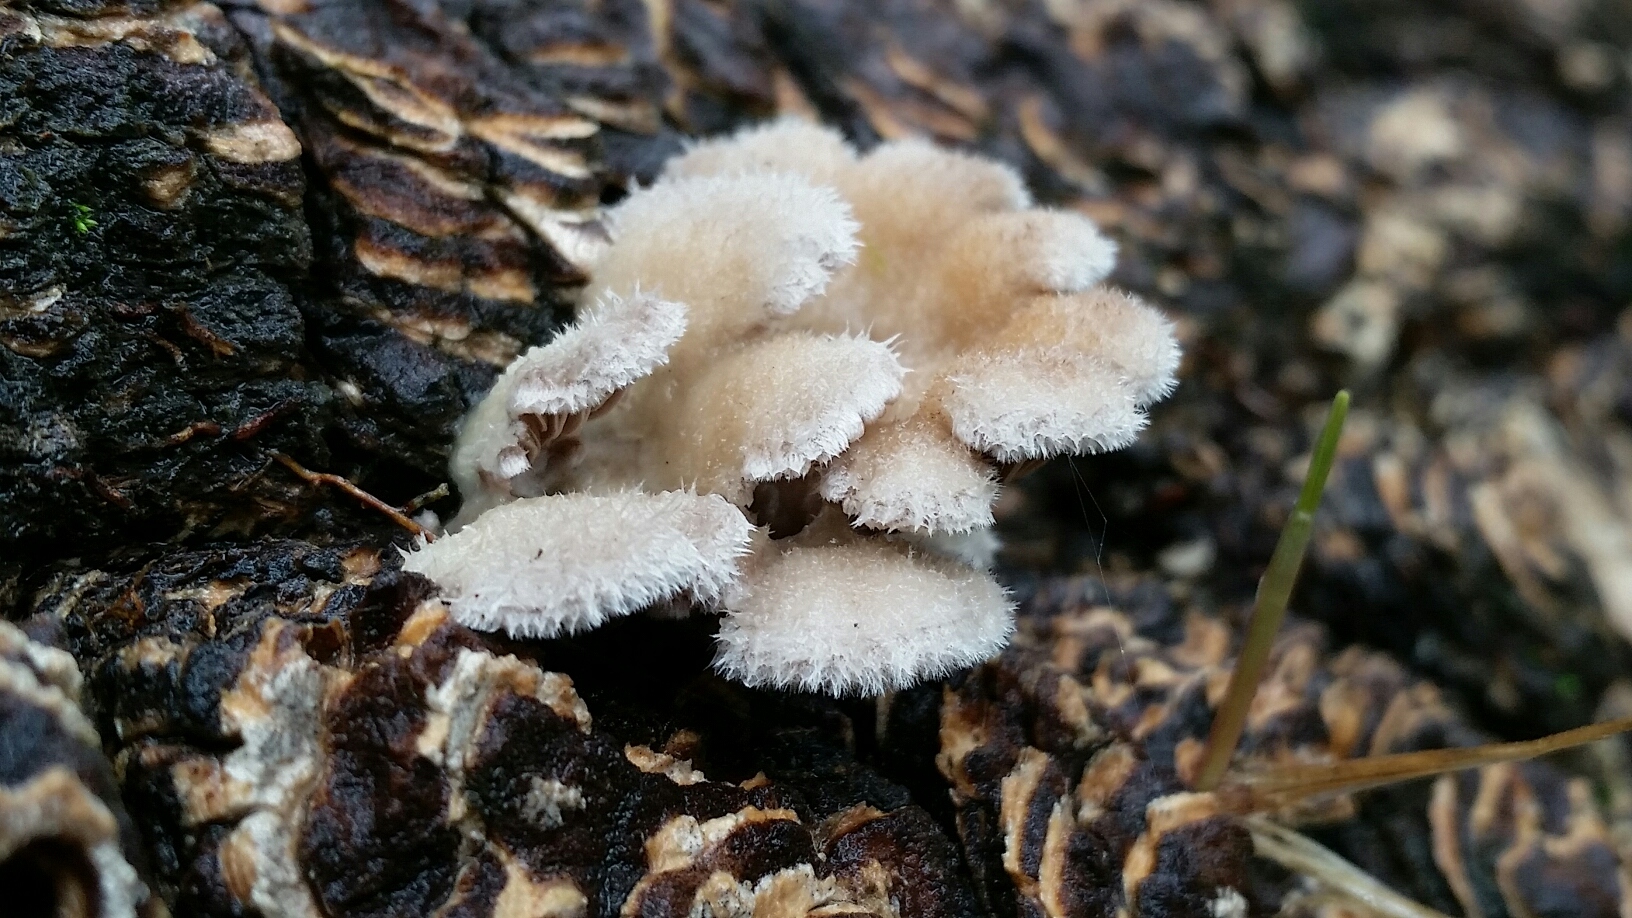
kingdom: Fungi
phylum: Basidiomycota
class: Agaricomycetes
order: Agaricales
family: Schizophyllaceae
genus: Schizophyllum
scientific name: Schizophyllum commune
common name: Common porecrust
